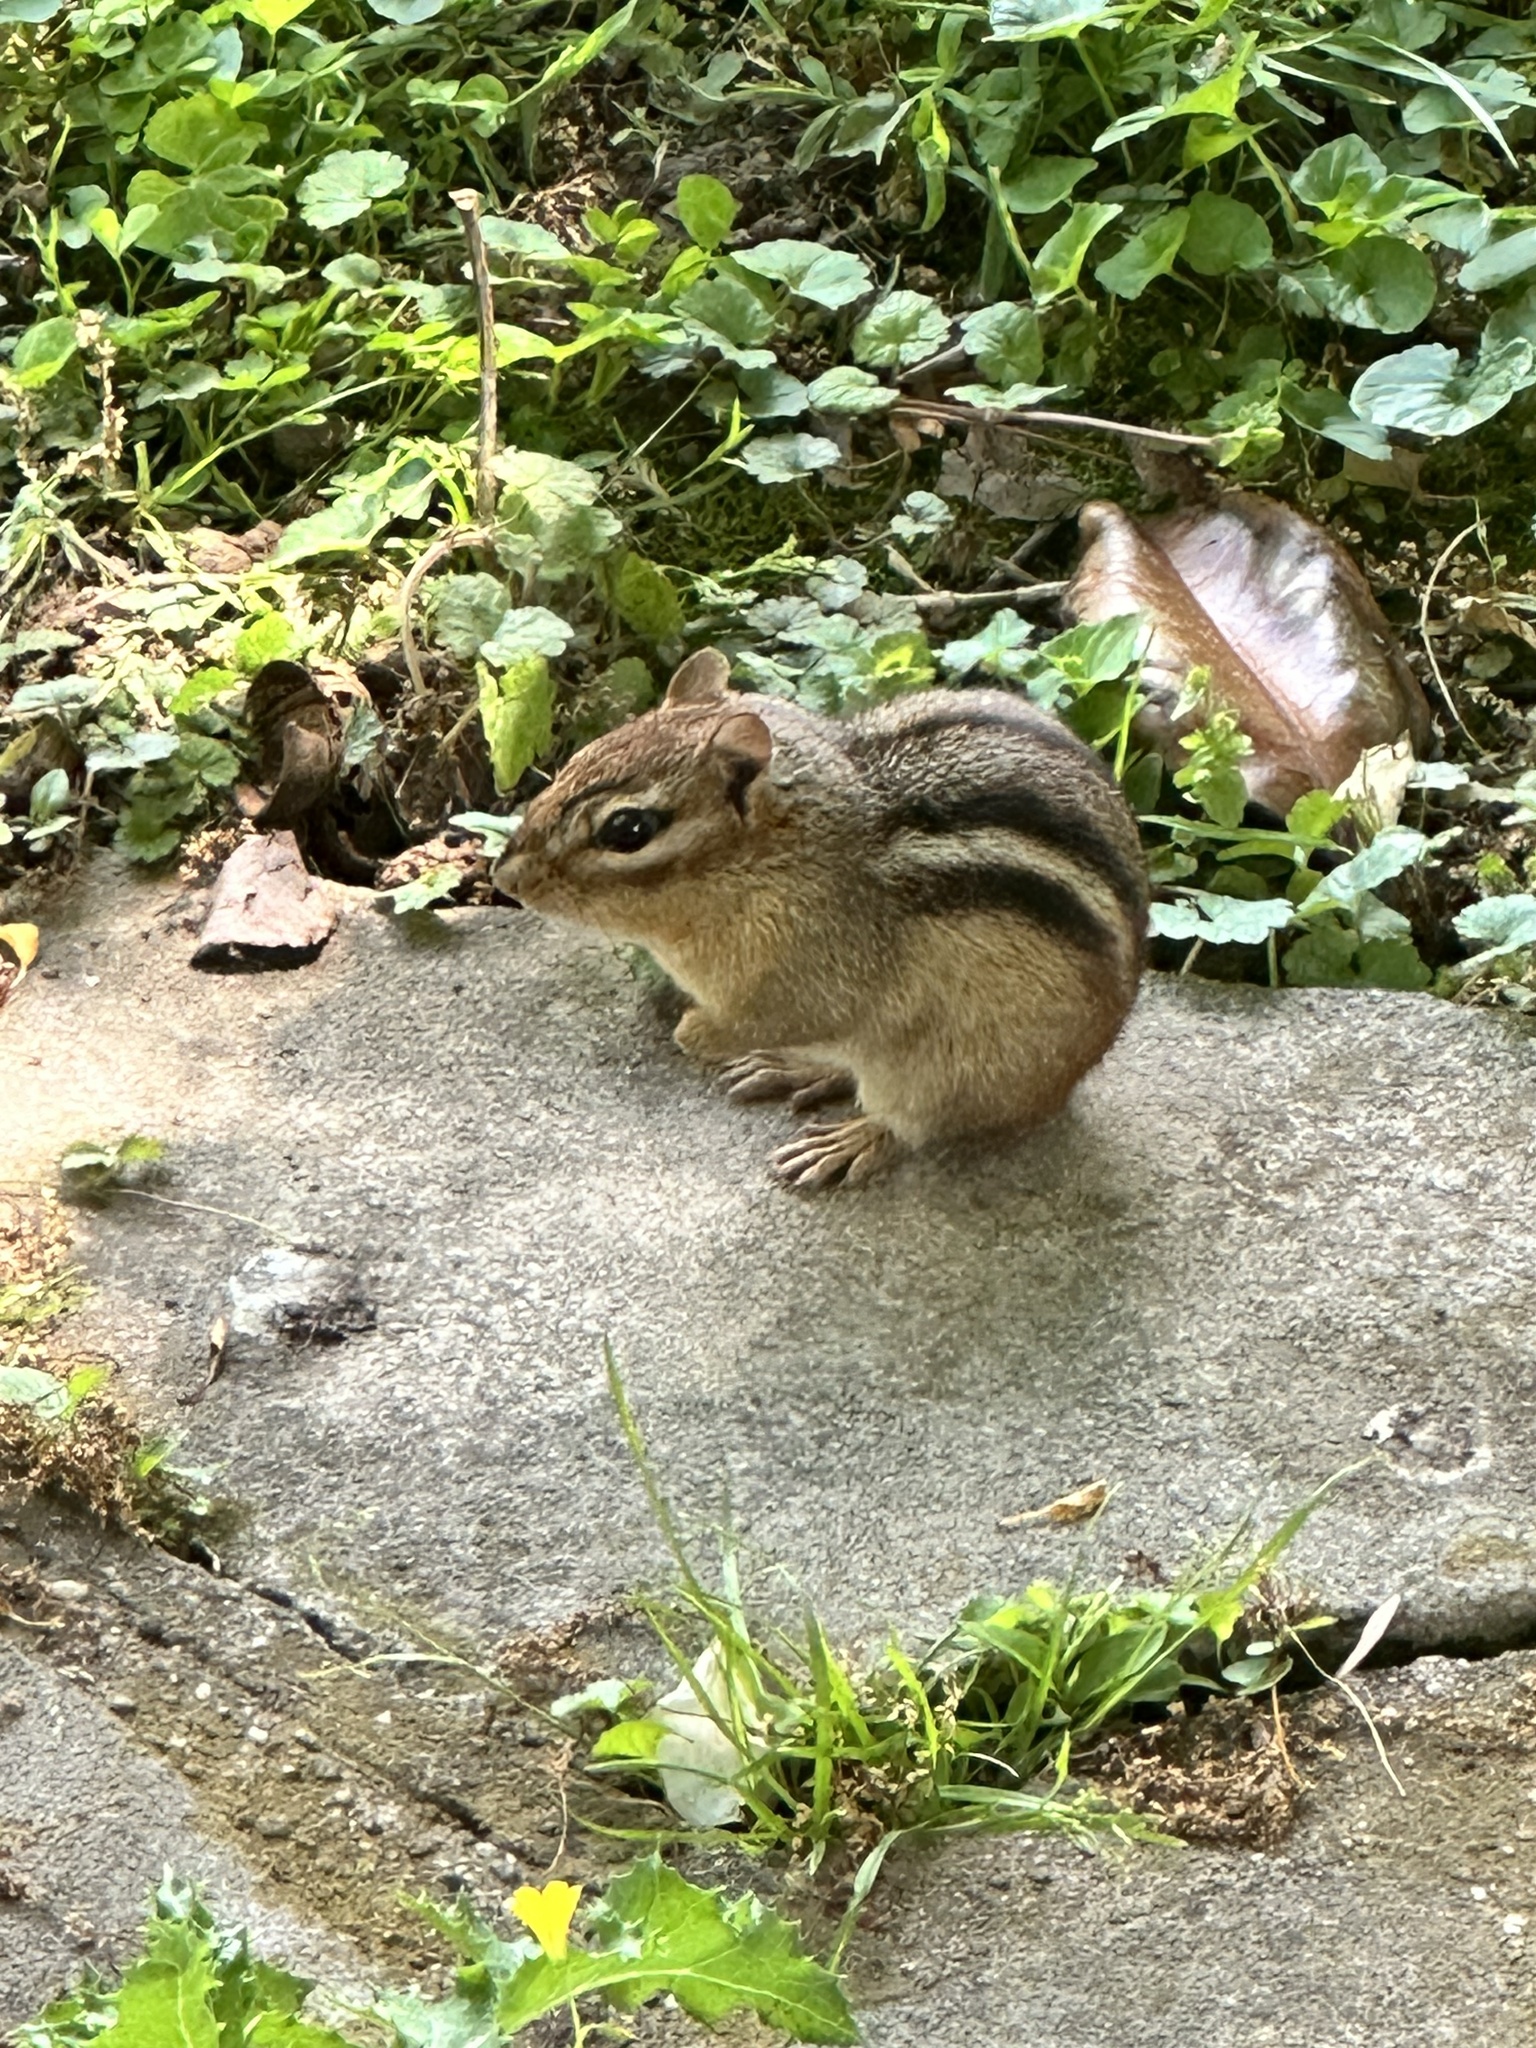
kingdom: Animalia
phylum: Chordata
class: Mammalia
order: Rodentia
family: Sciuridae
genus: Tamias
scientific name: Tamias striatus
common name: Eastern chipmunk
